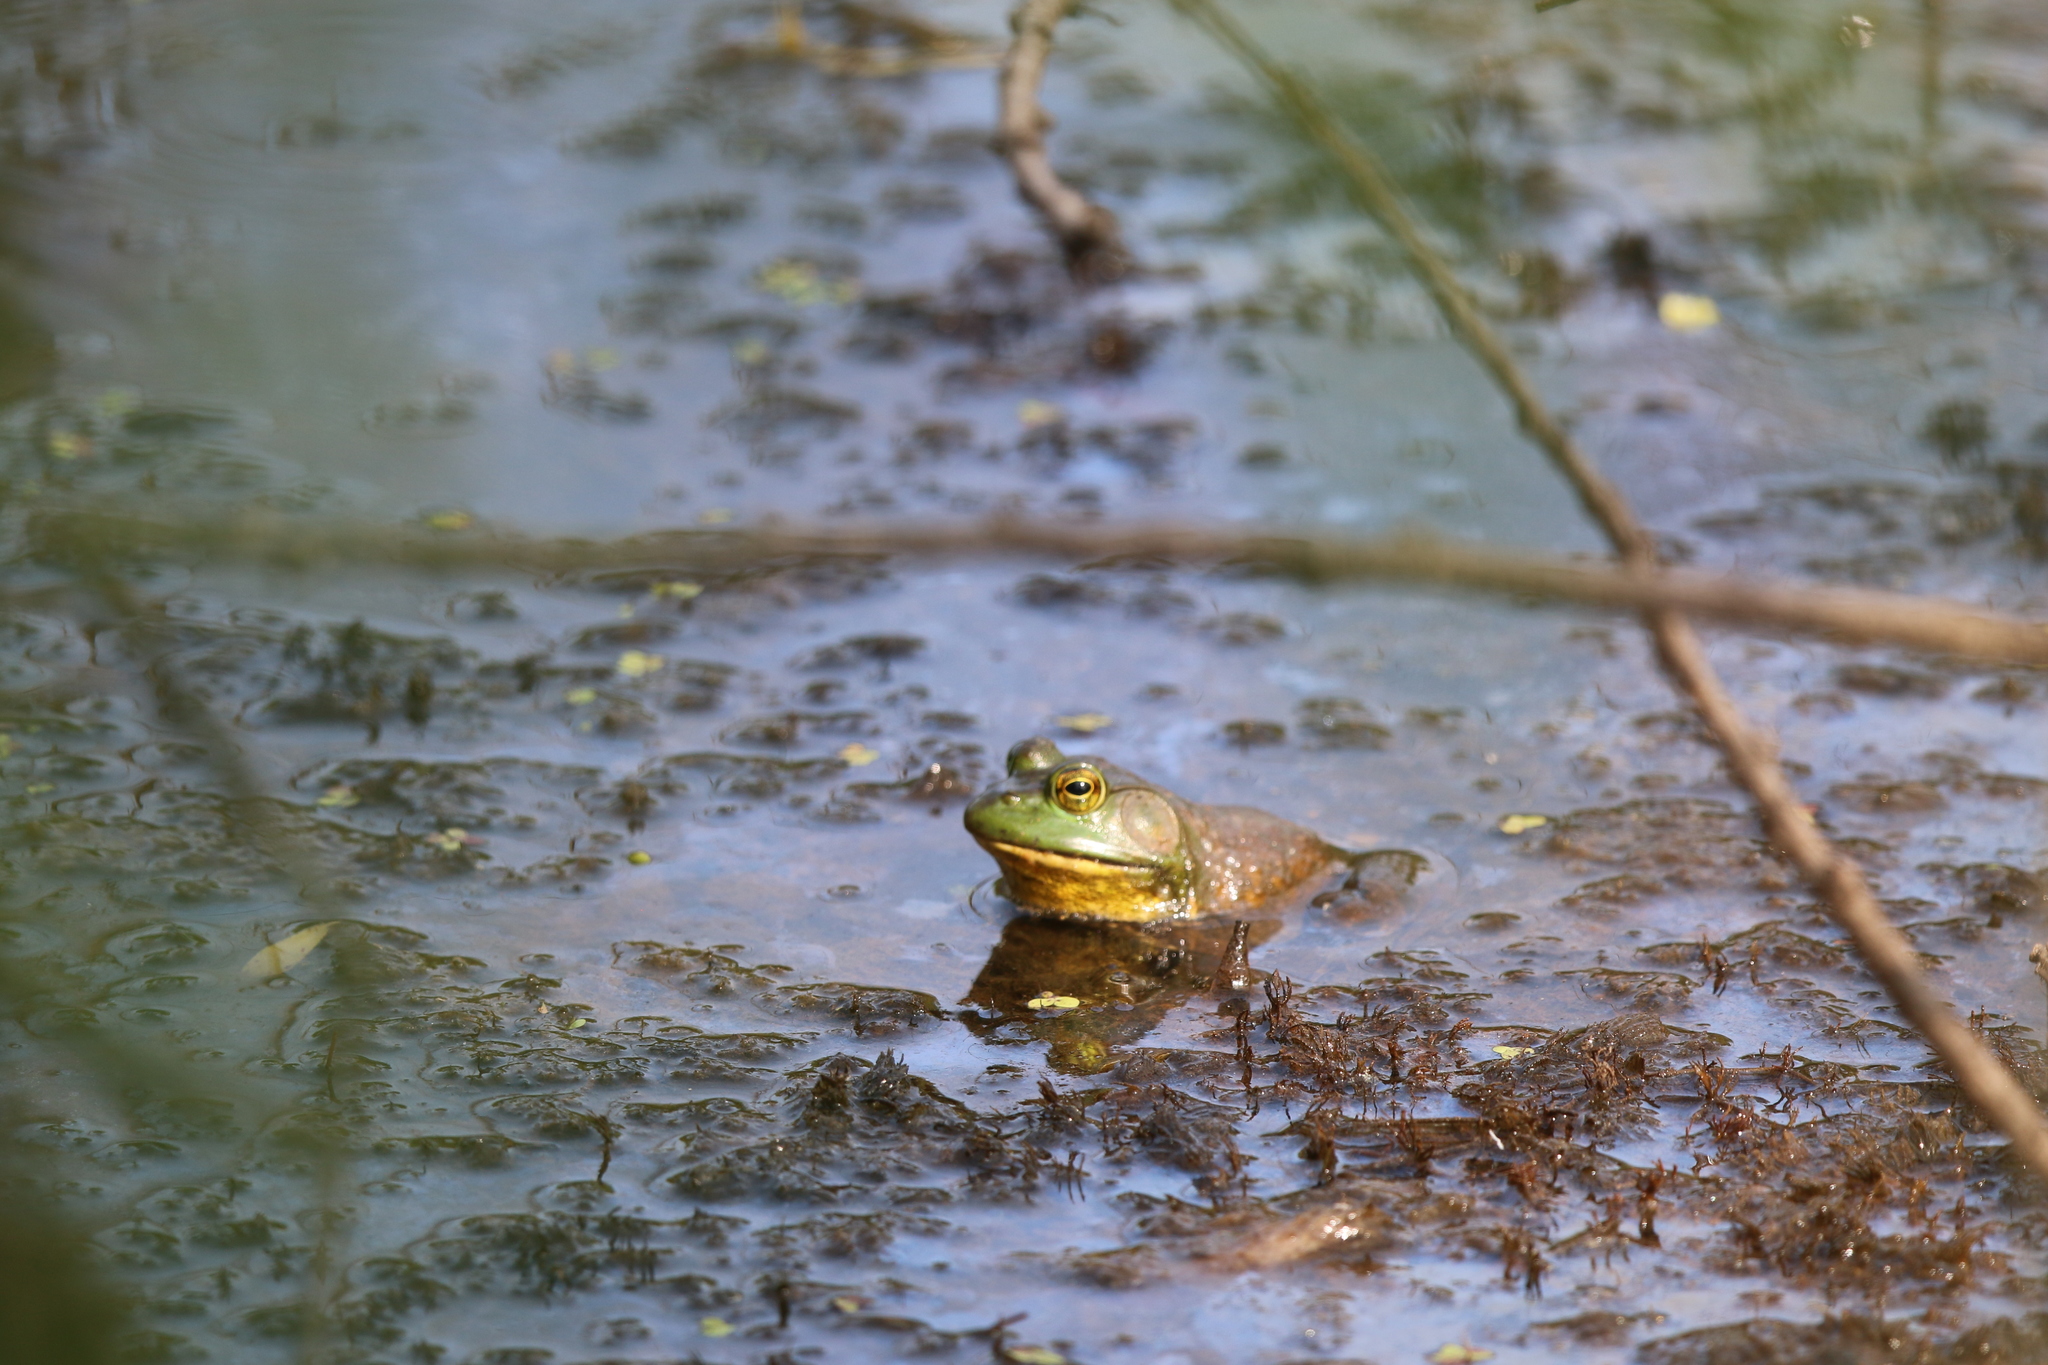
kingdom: Animalia
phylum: Chordata
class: Amphibia
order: Anura
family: Ranidae
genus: Lithobates
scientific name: Lithobates catesbeianus
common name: American bullfrog
